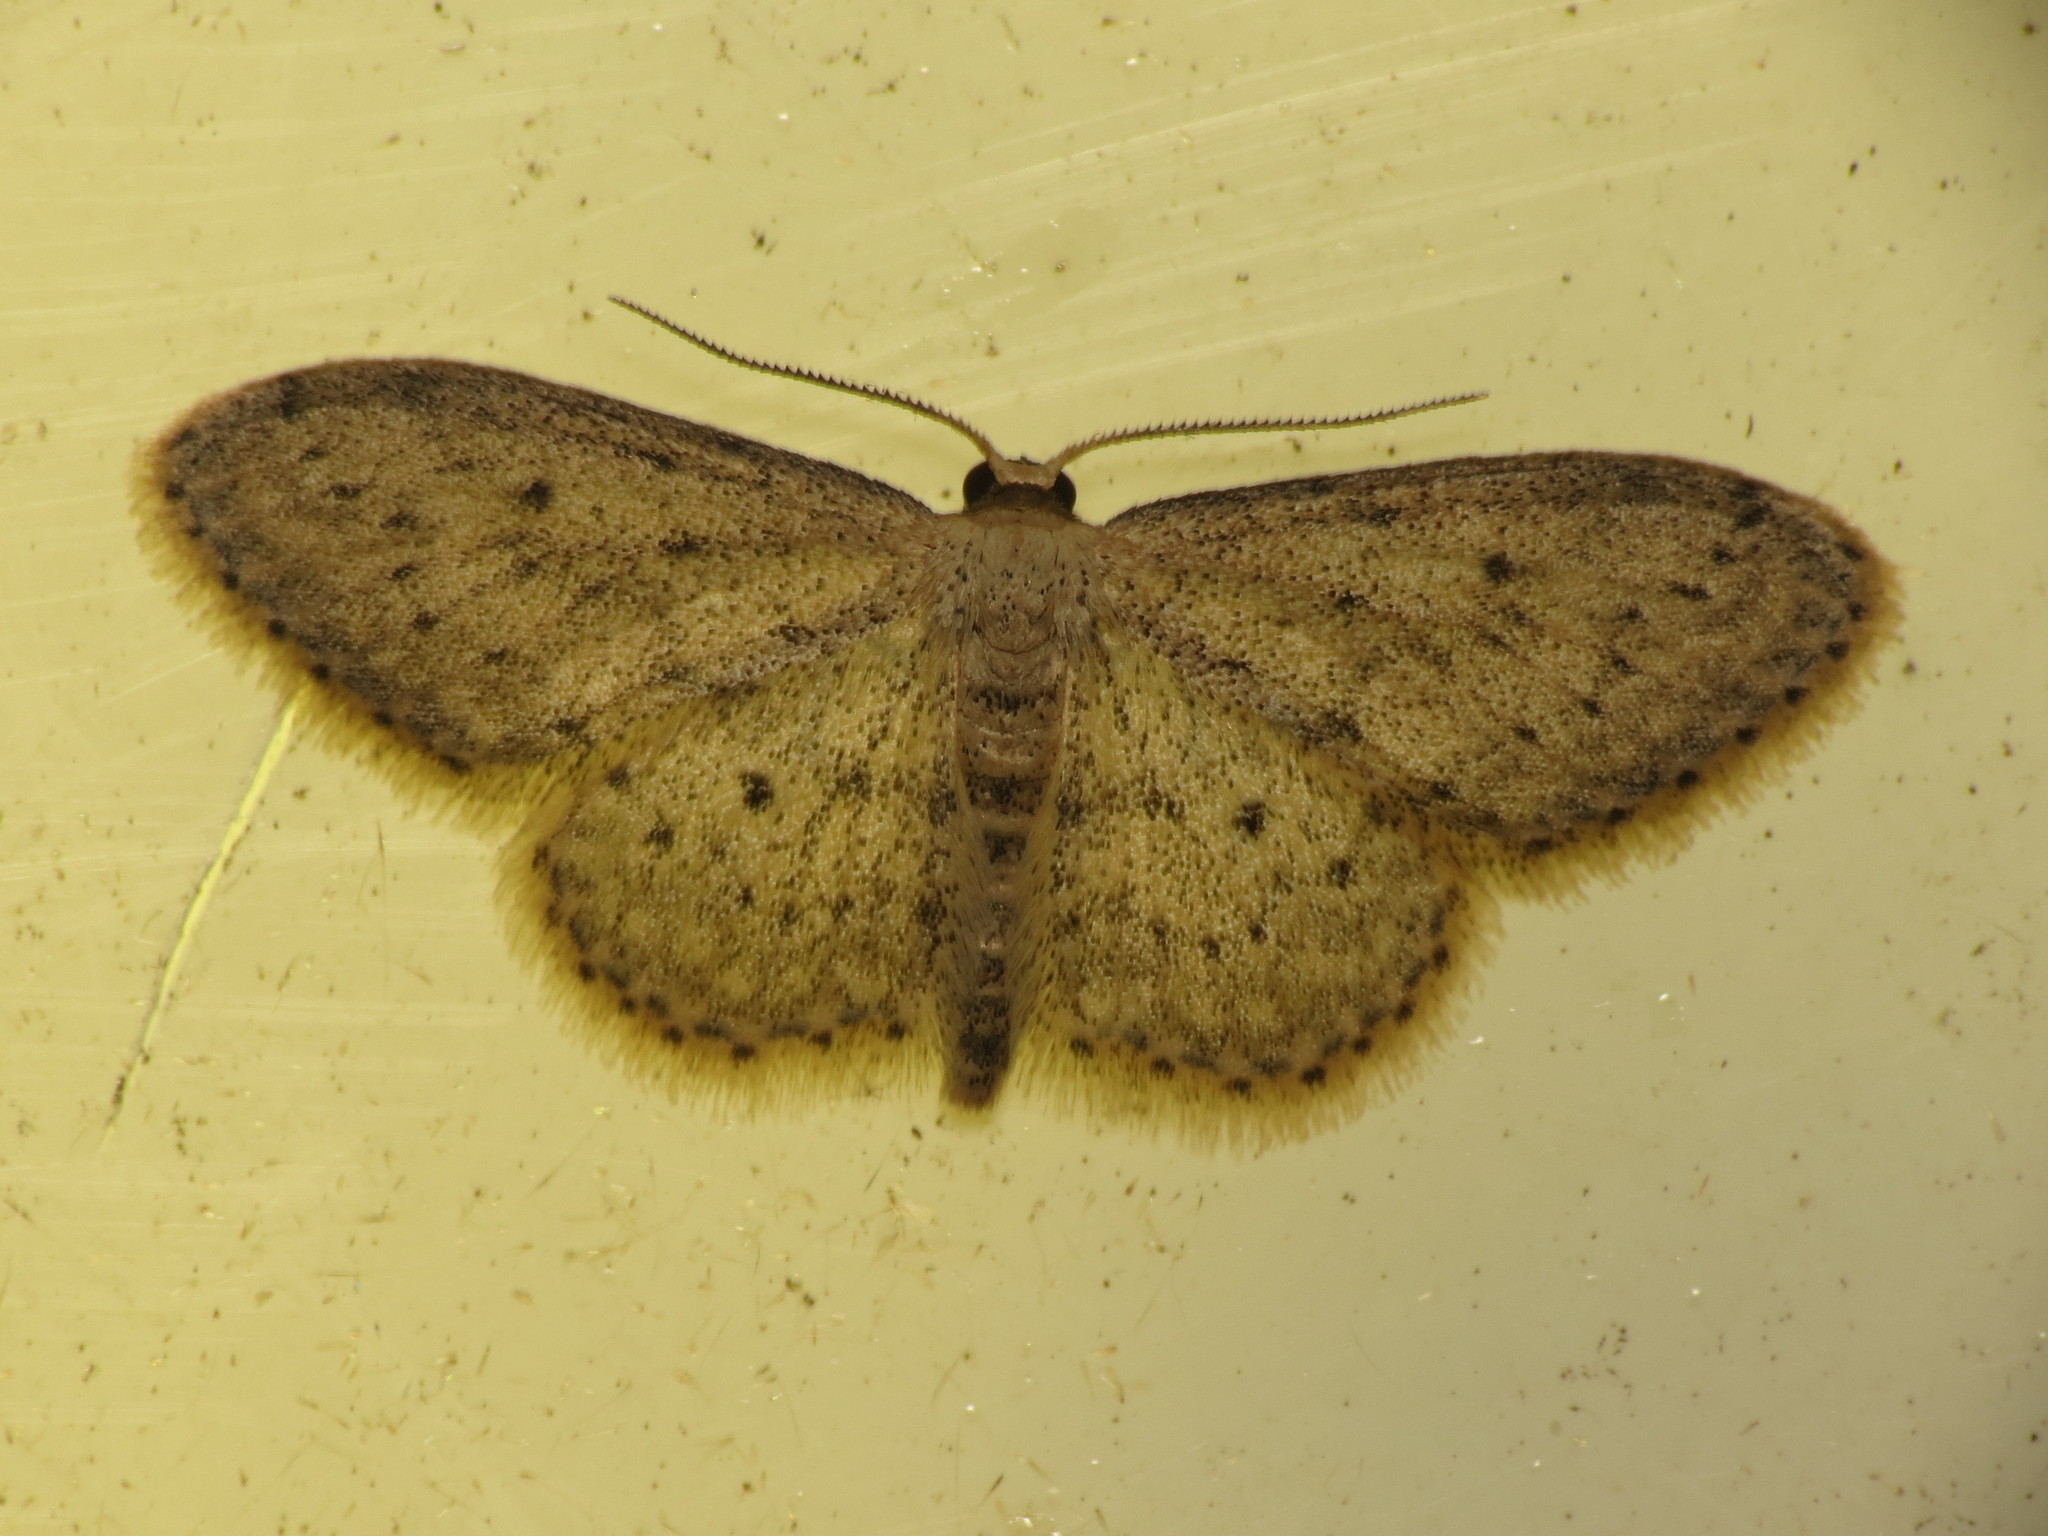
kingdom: Animalia
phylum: Arthropoda
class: Insecta
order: Lepidoptera
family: Geometridae
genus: Idaea
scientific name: Idaea seriata
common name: Small dusty wave
